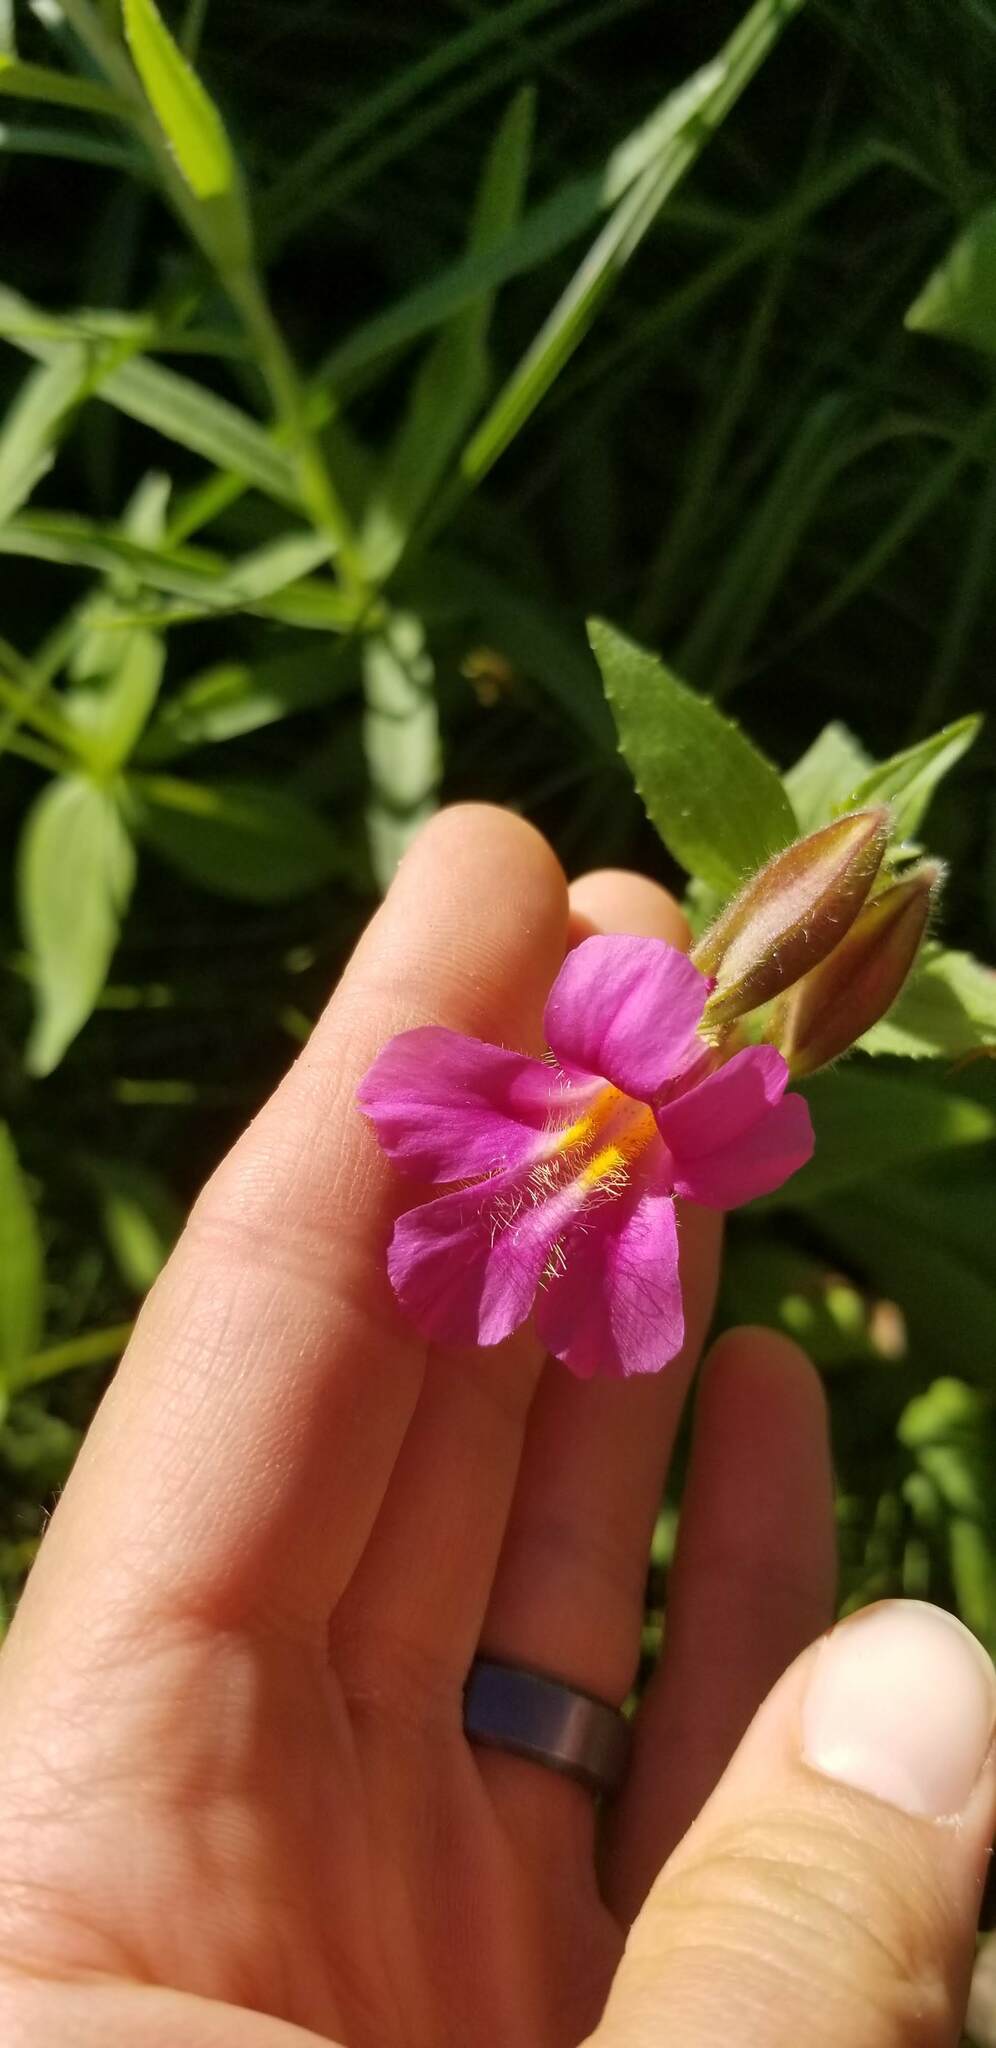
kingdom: Plantae
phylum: Tracheophyta
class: Magnoliopsida
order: Lamiales
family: Phrymaceae
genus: Erythranthe
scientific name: Erythranthe lewisii
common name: Lewis's monkey-flower
